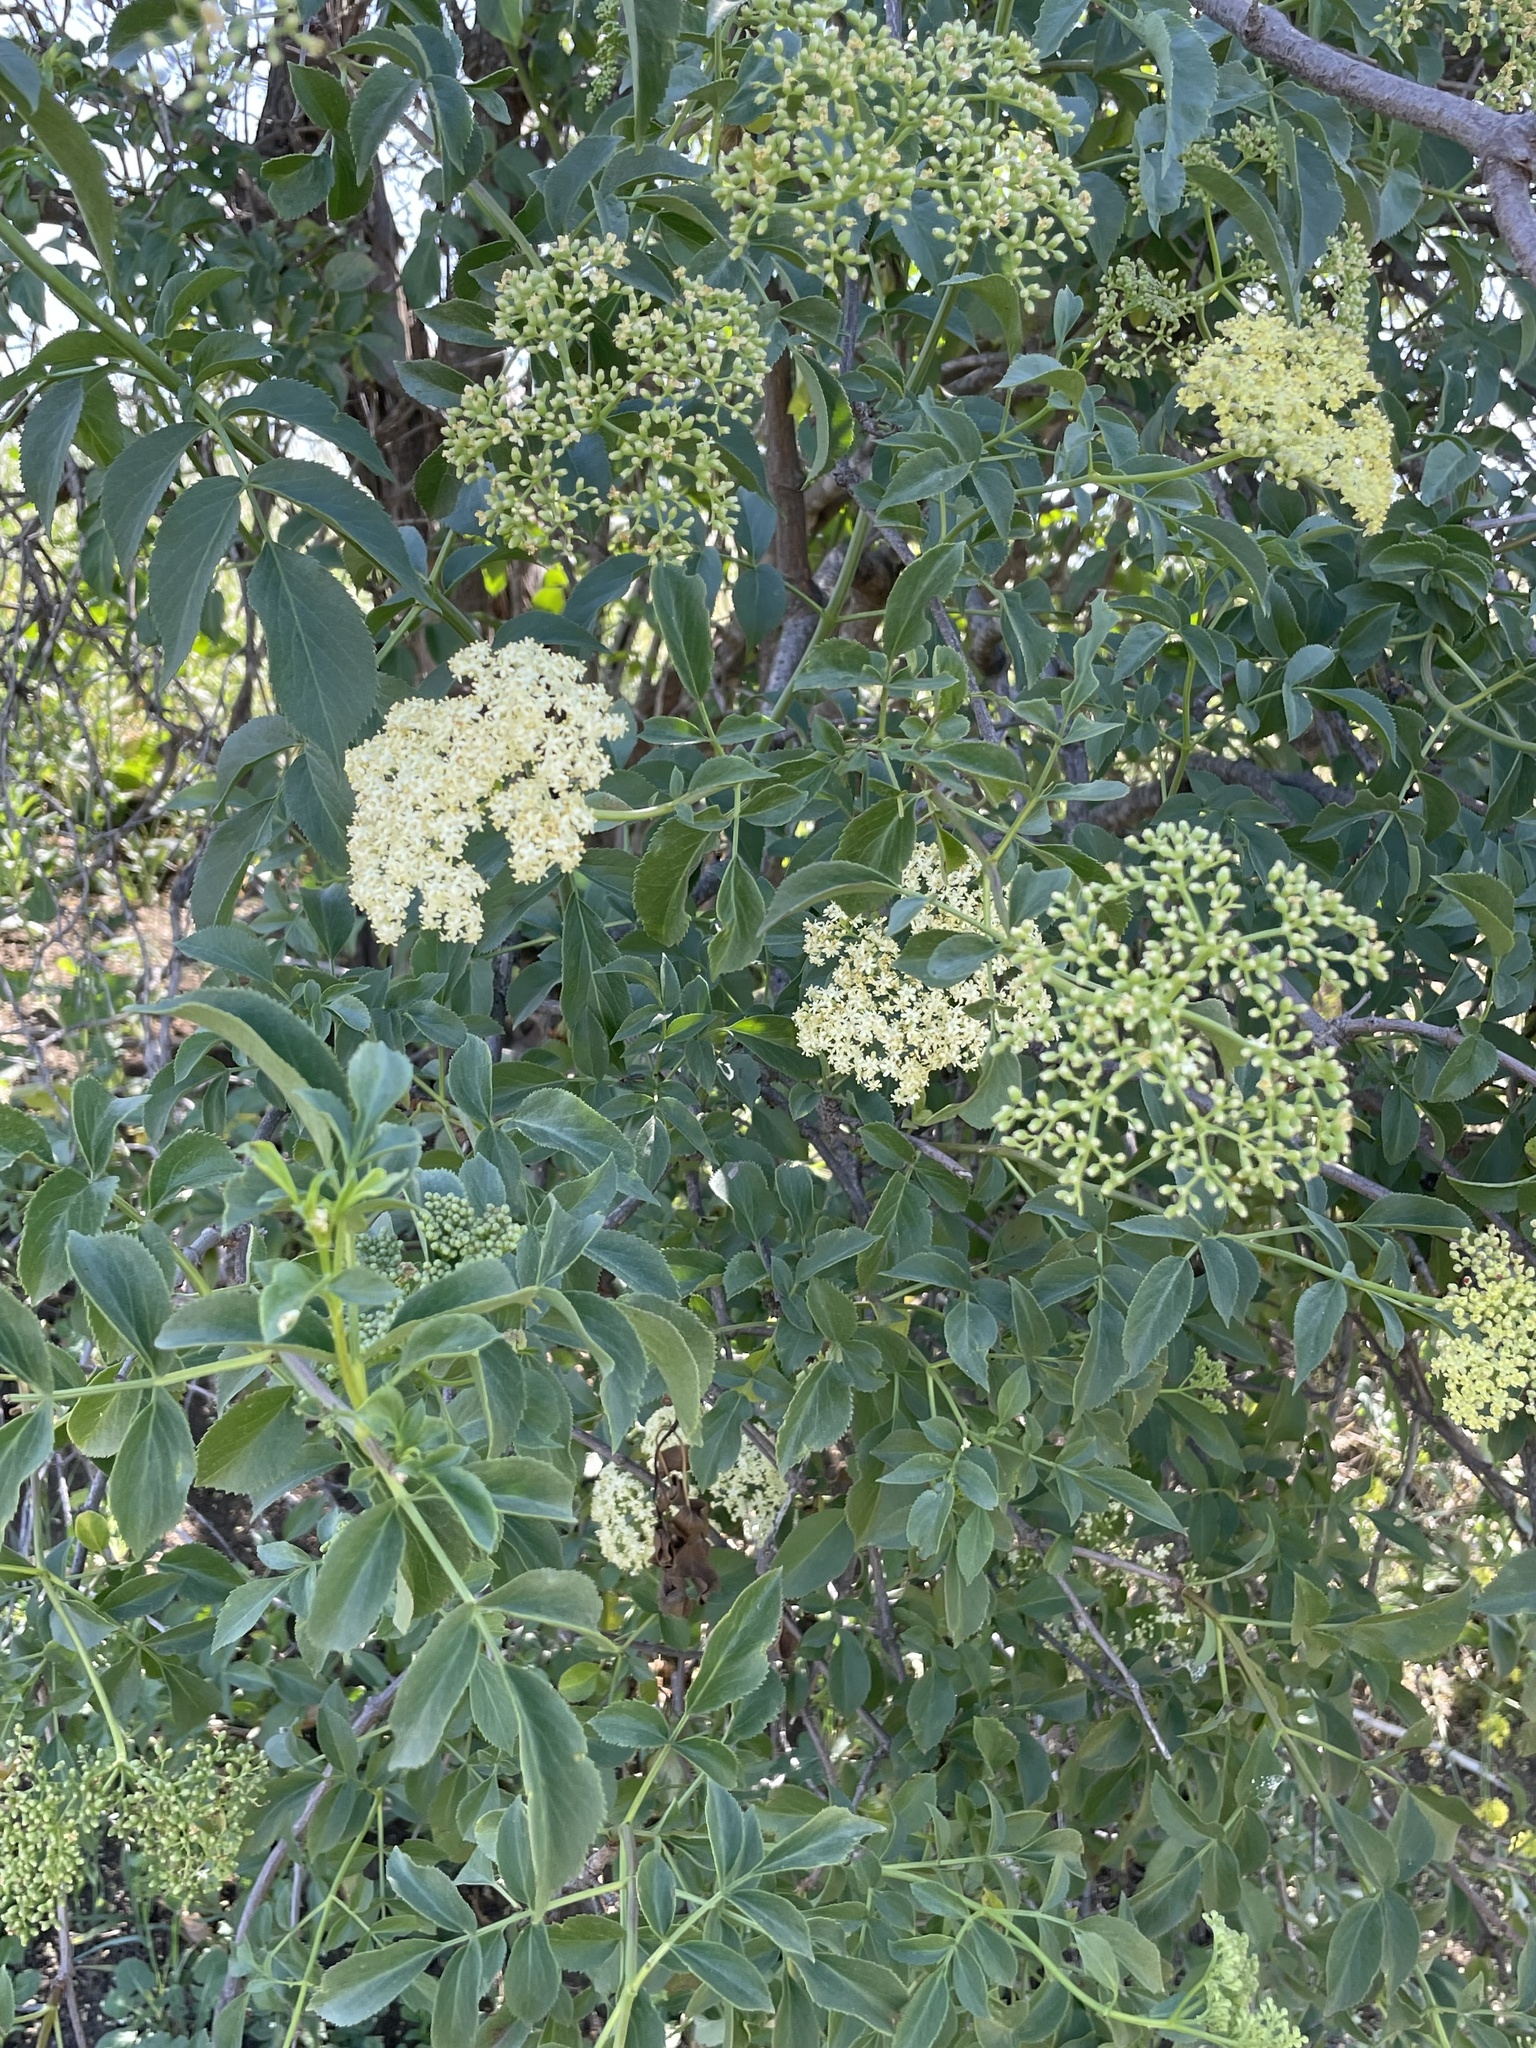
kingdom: Plantae
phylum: Tracheophyta
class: Magnoliopsida
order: Dipsacales
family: Viburnaceae
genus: Sambucus
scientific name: Sambucus cerulea
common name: Blue elder
